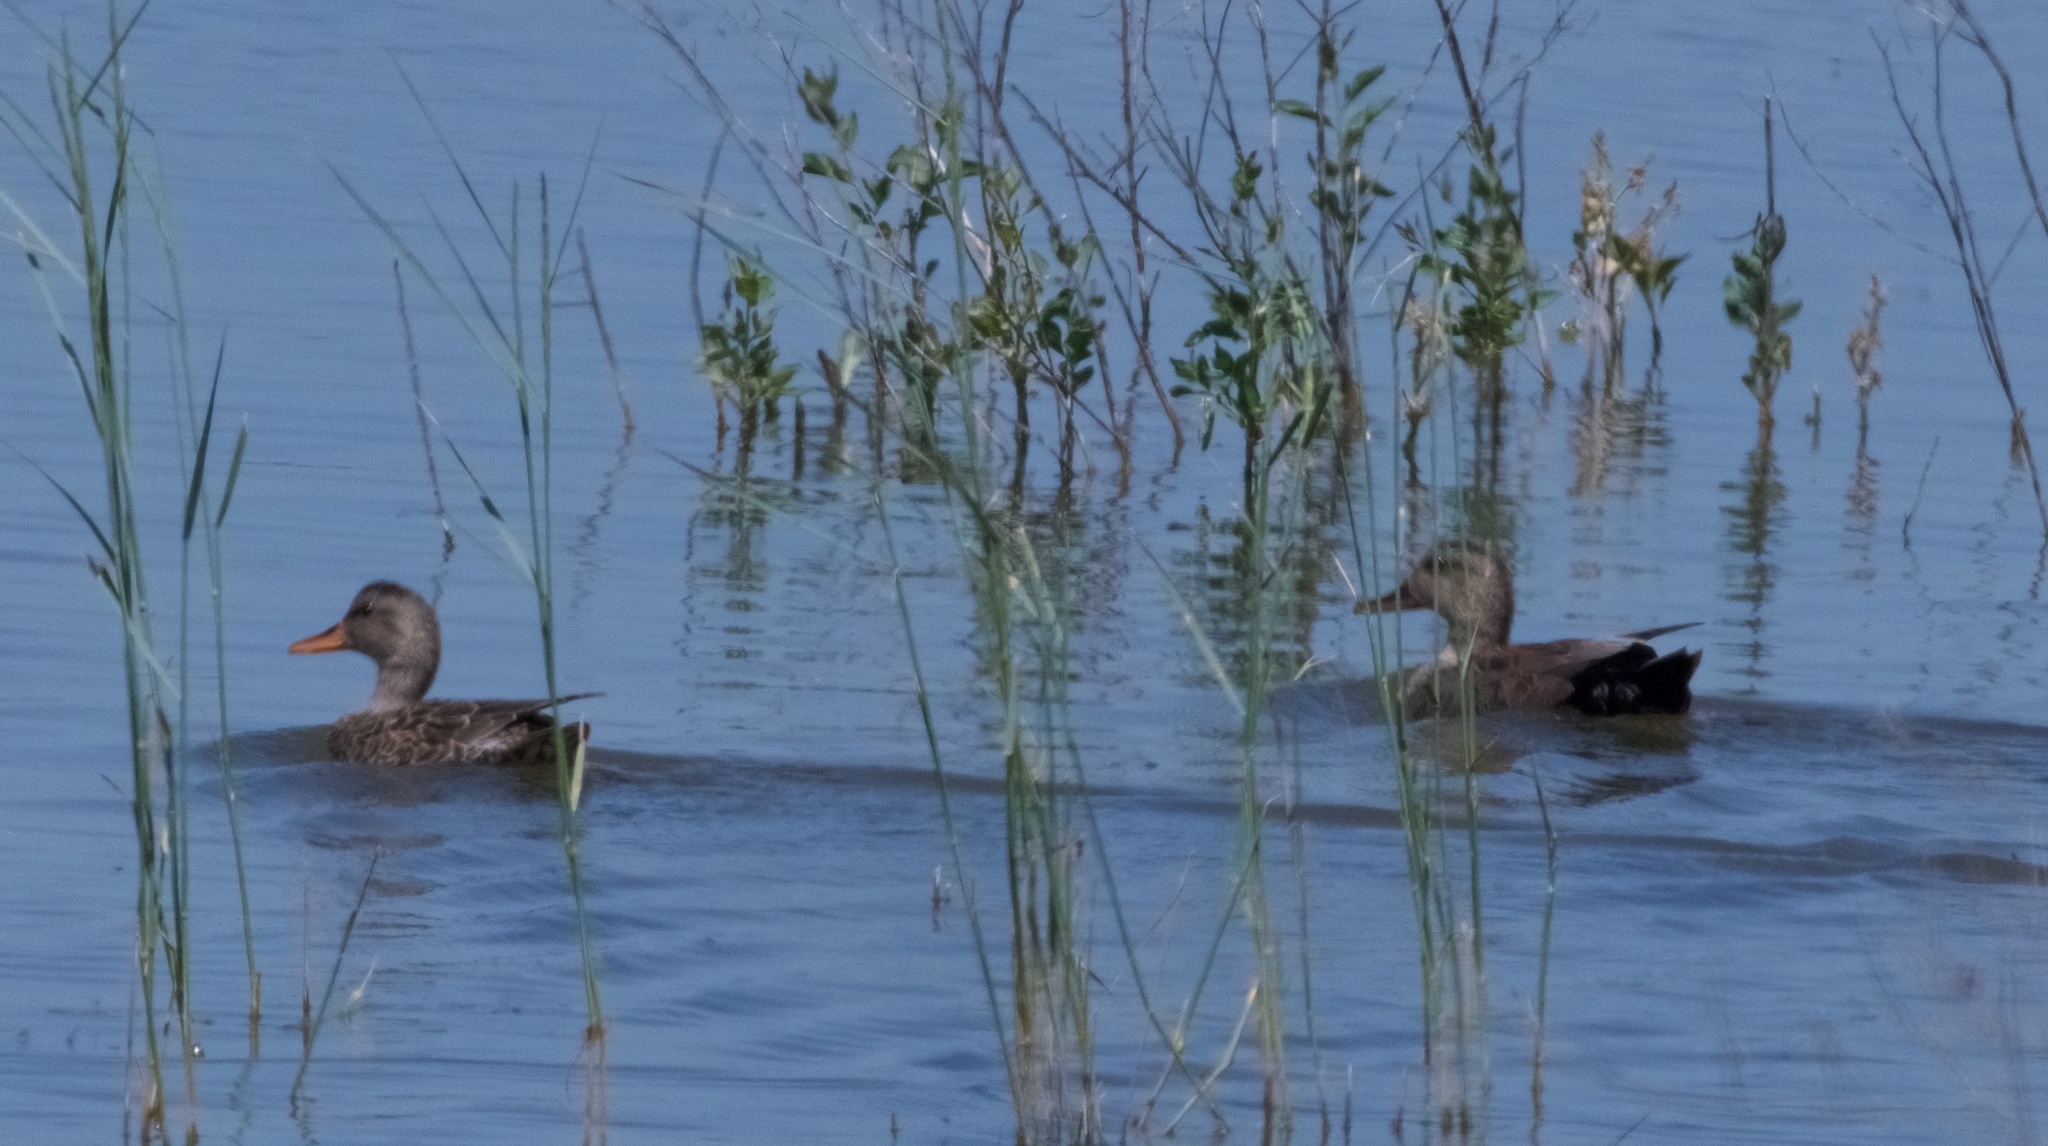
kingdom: Animalia
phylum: Chordata
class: Aves
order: Anseriformes
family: Anatidae
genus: Mareca
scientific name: Mareca strepera
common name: Gadwall
